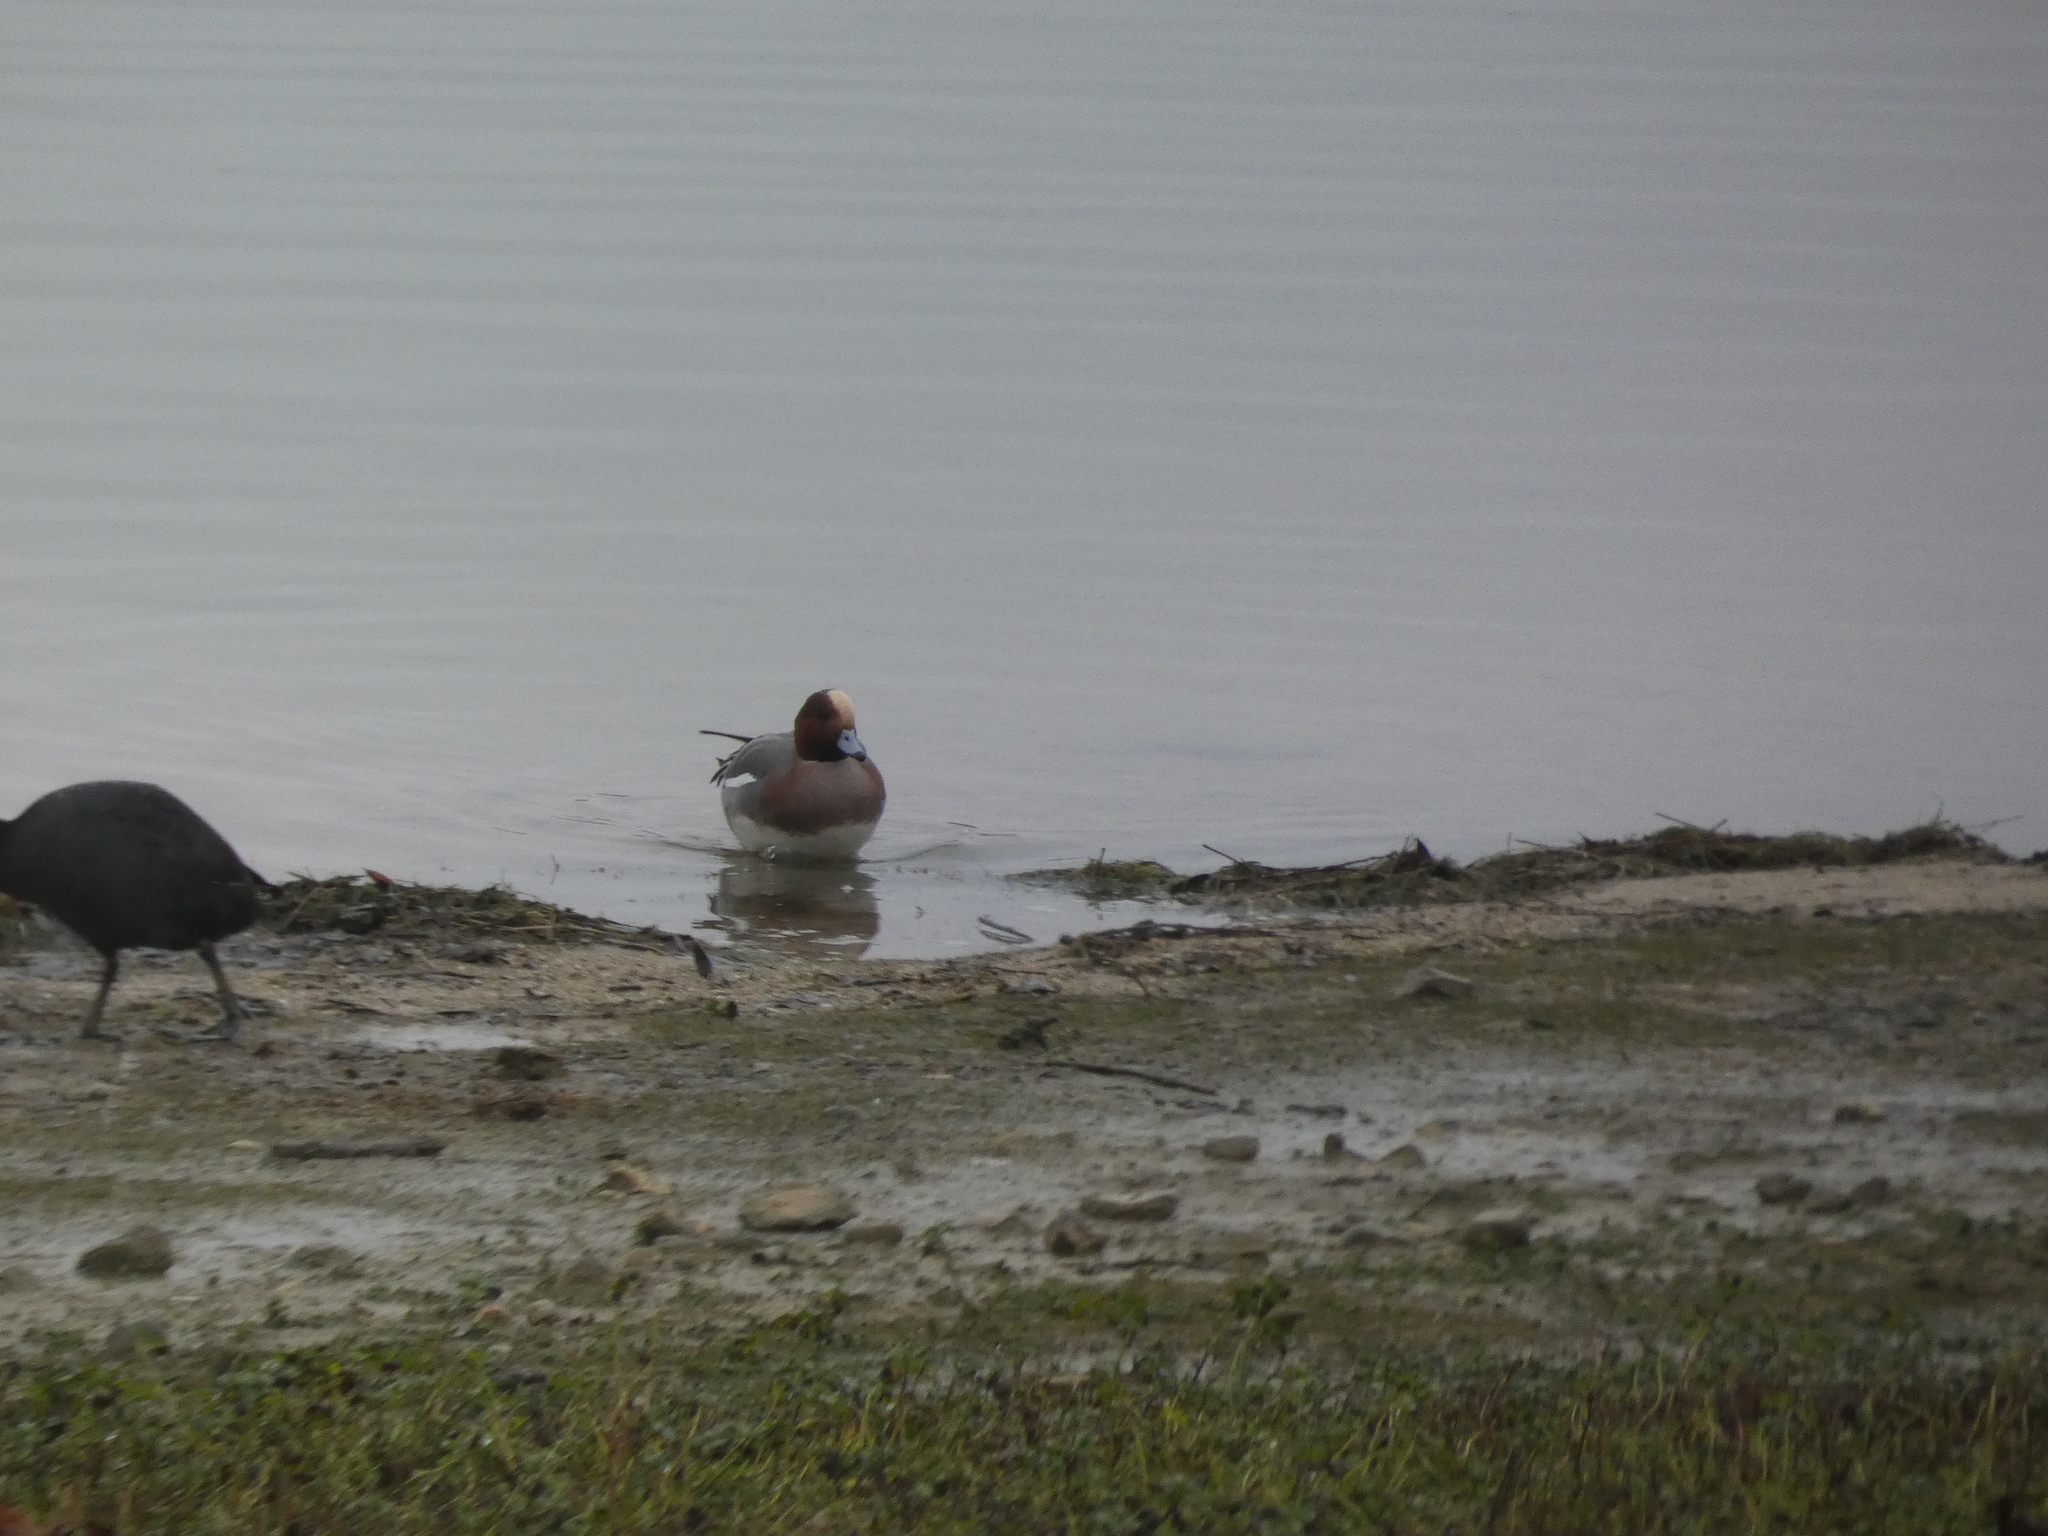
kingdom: Animalia
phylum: Chordata
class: Aves
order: Anseriformes
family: Anatidae
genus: Mareca
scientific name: Mareca penelope
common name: Eurasian wigeon
